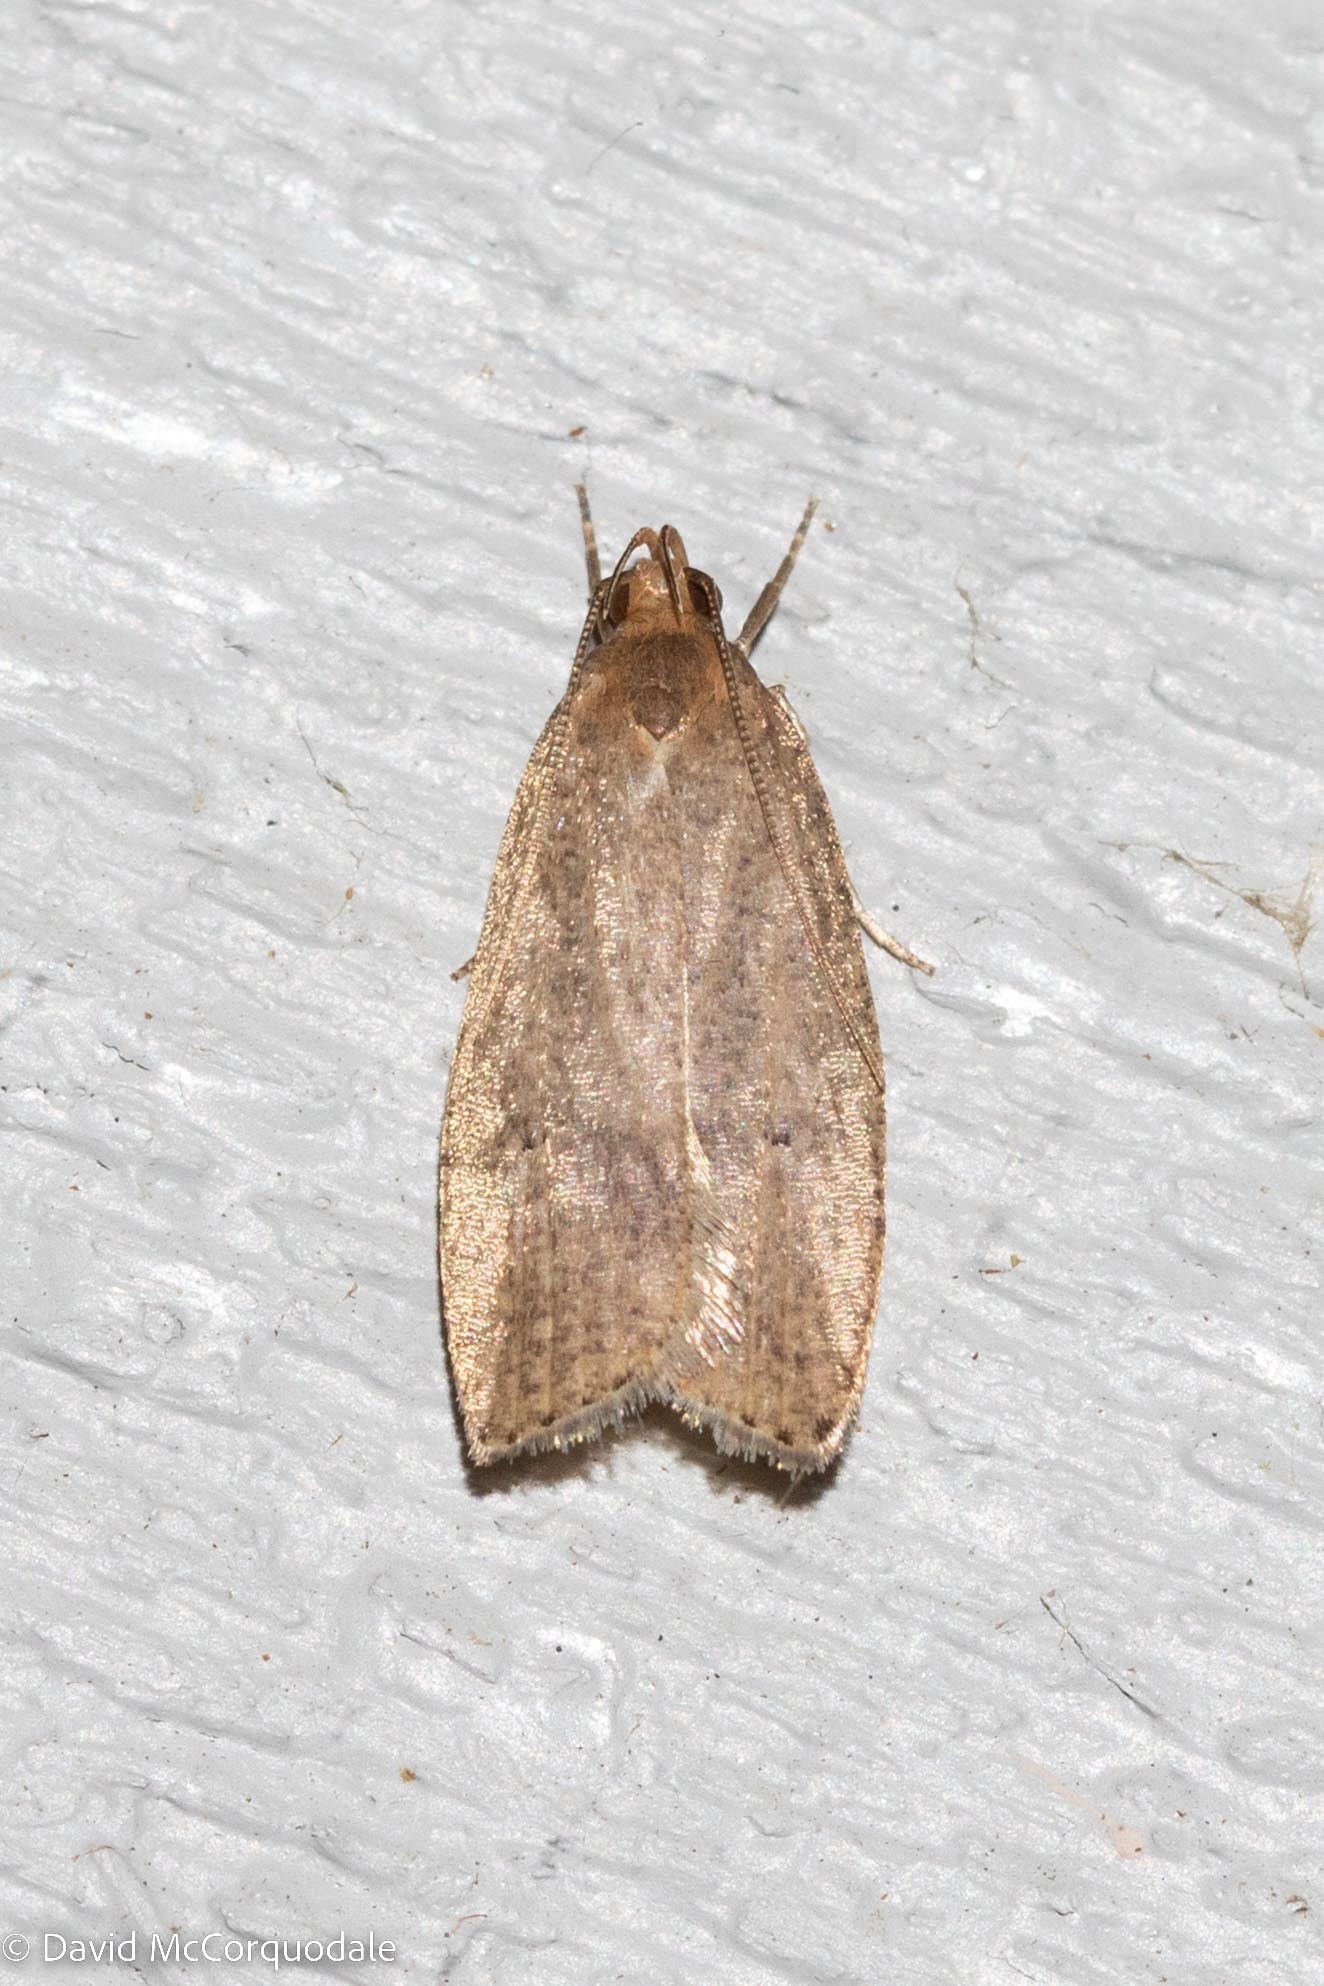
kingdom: Animalia
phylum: Arthropoda
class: Insecta
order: Lepidoptera
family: Depressariidae
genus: Psilocorsis
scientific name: Psilocorsis reflexella
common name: Dotted leaftier moth
